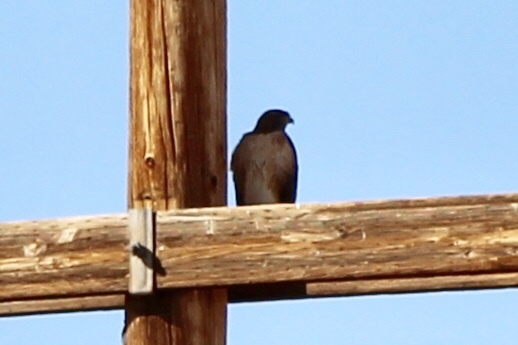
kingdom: Animalia
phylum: Chordata
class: Aves
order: Accipitriformes
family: Accipitridae
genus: Buteo
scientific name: Buteo jamaicensis
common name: Red-tailed hawk
